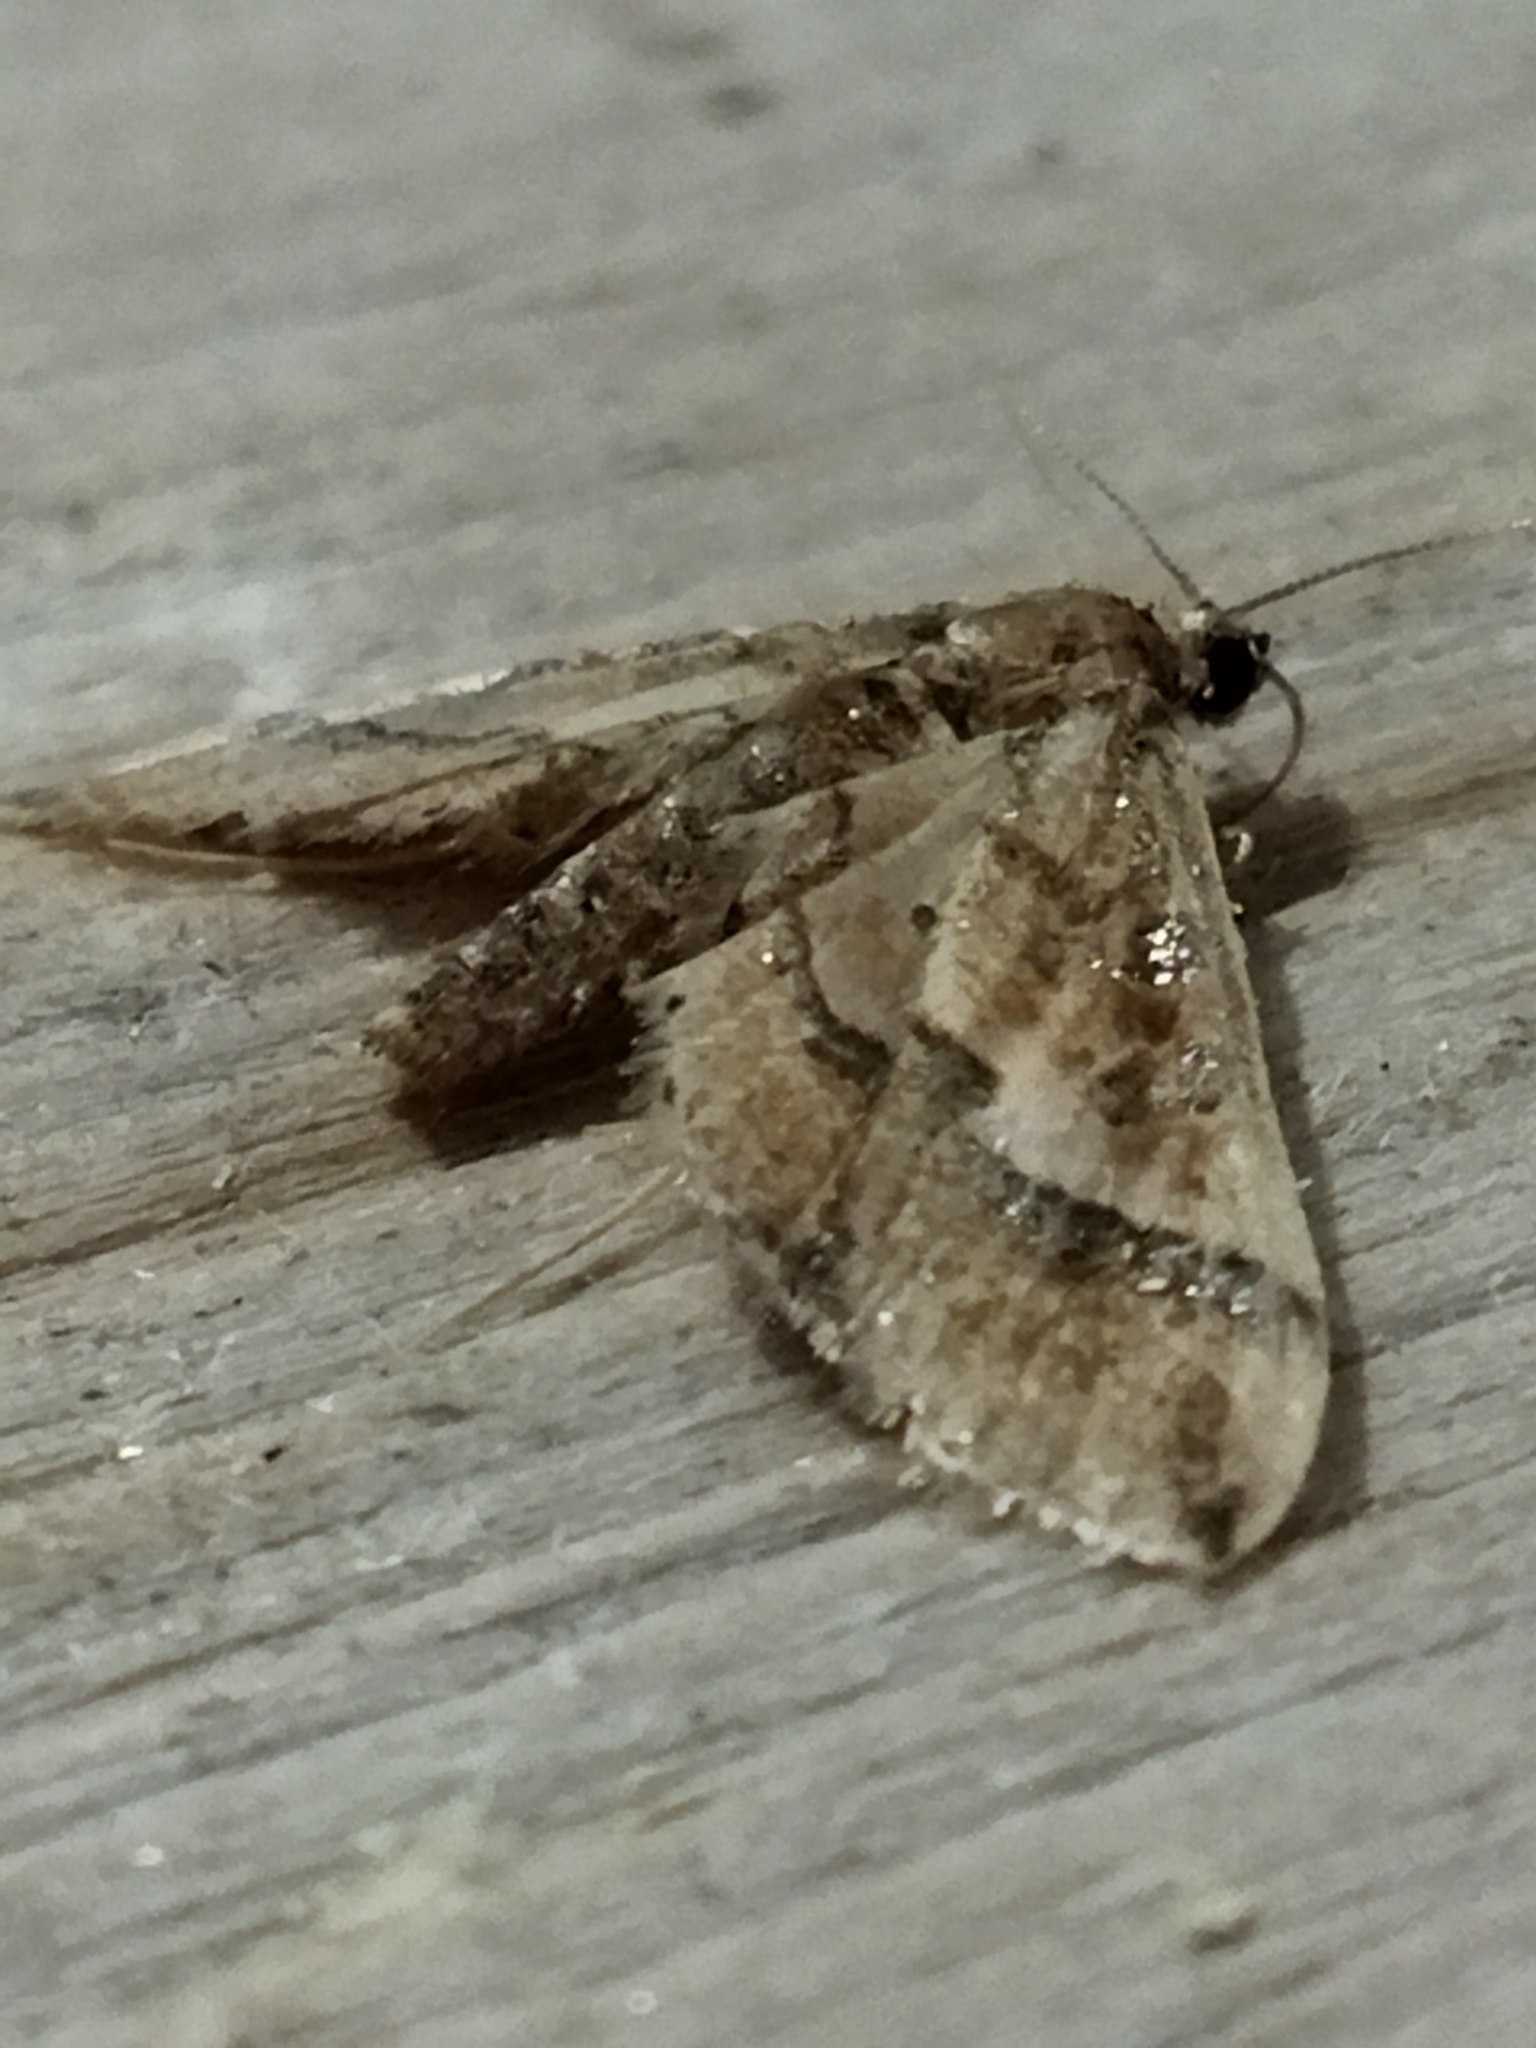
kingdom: Animalia
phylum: Arthropoda
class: Insecta
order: Lepidoptera
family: Crambidae
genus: Hydriris
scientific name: Hydriris ornatalis
